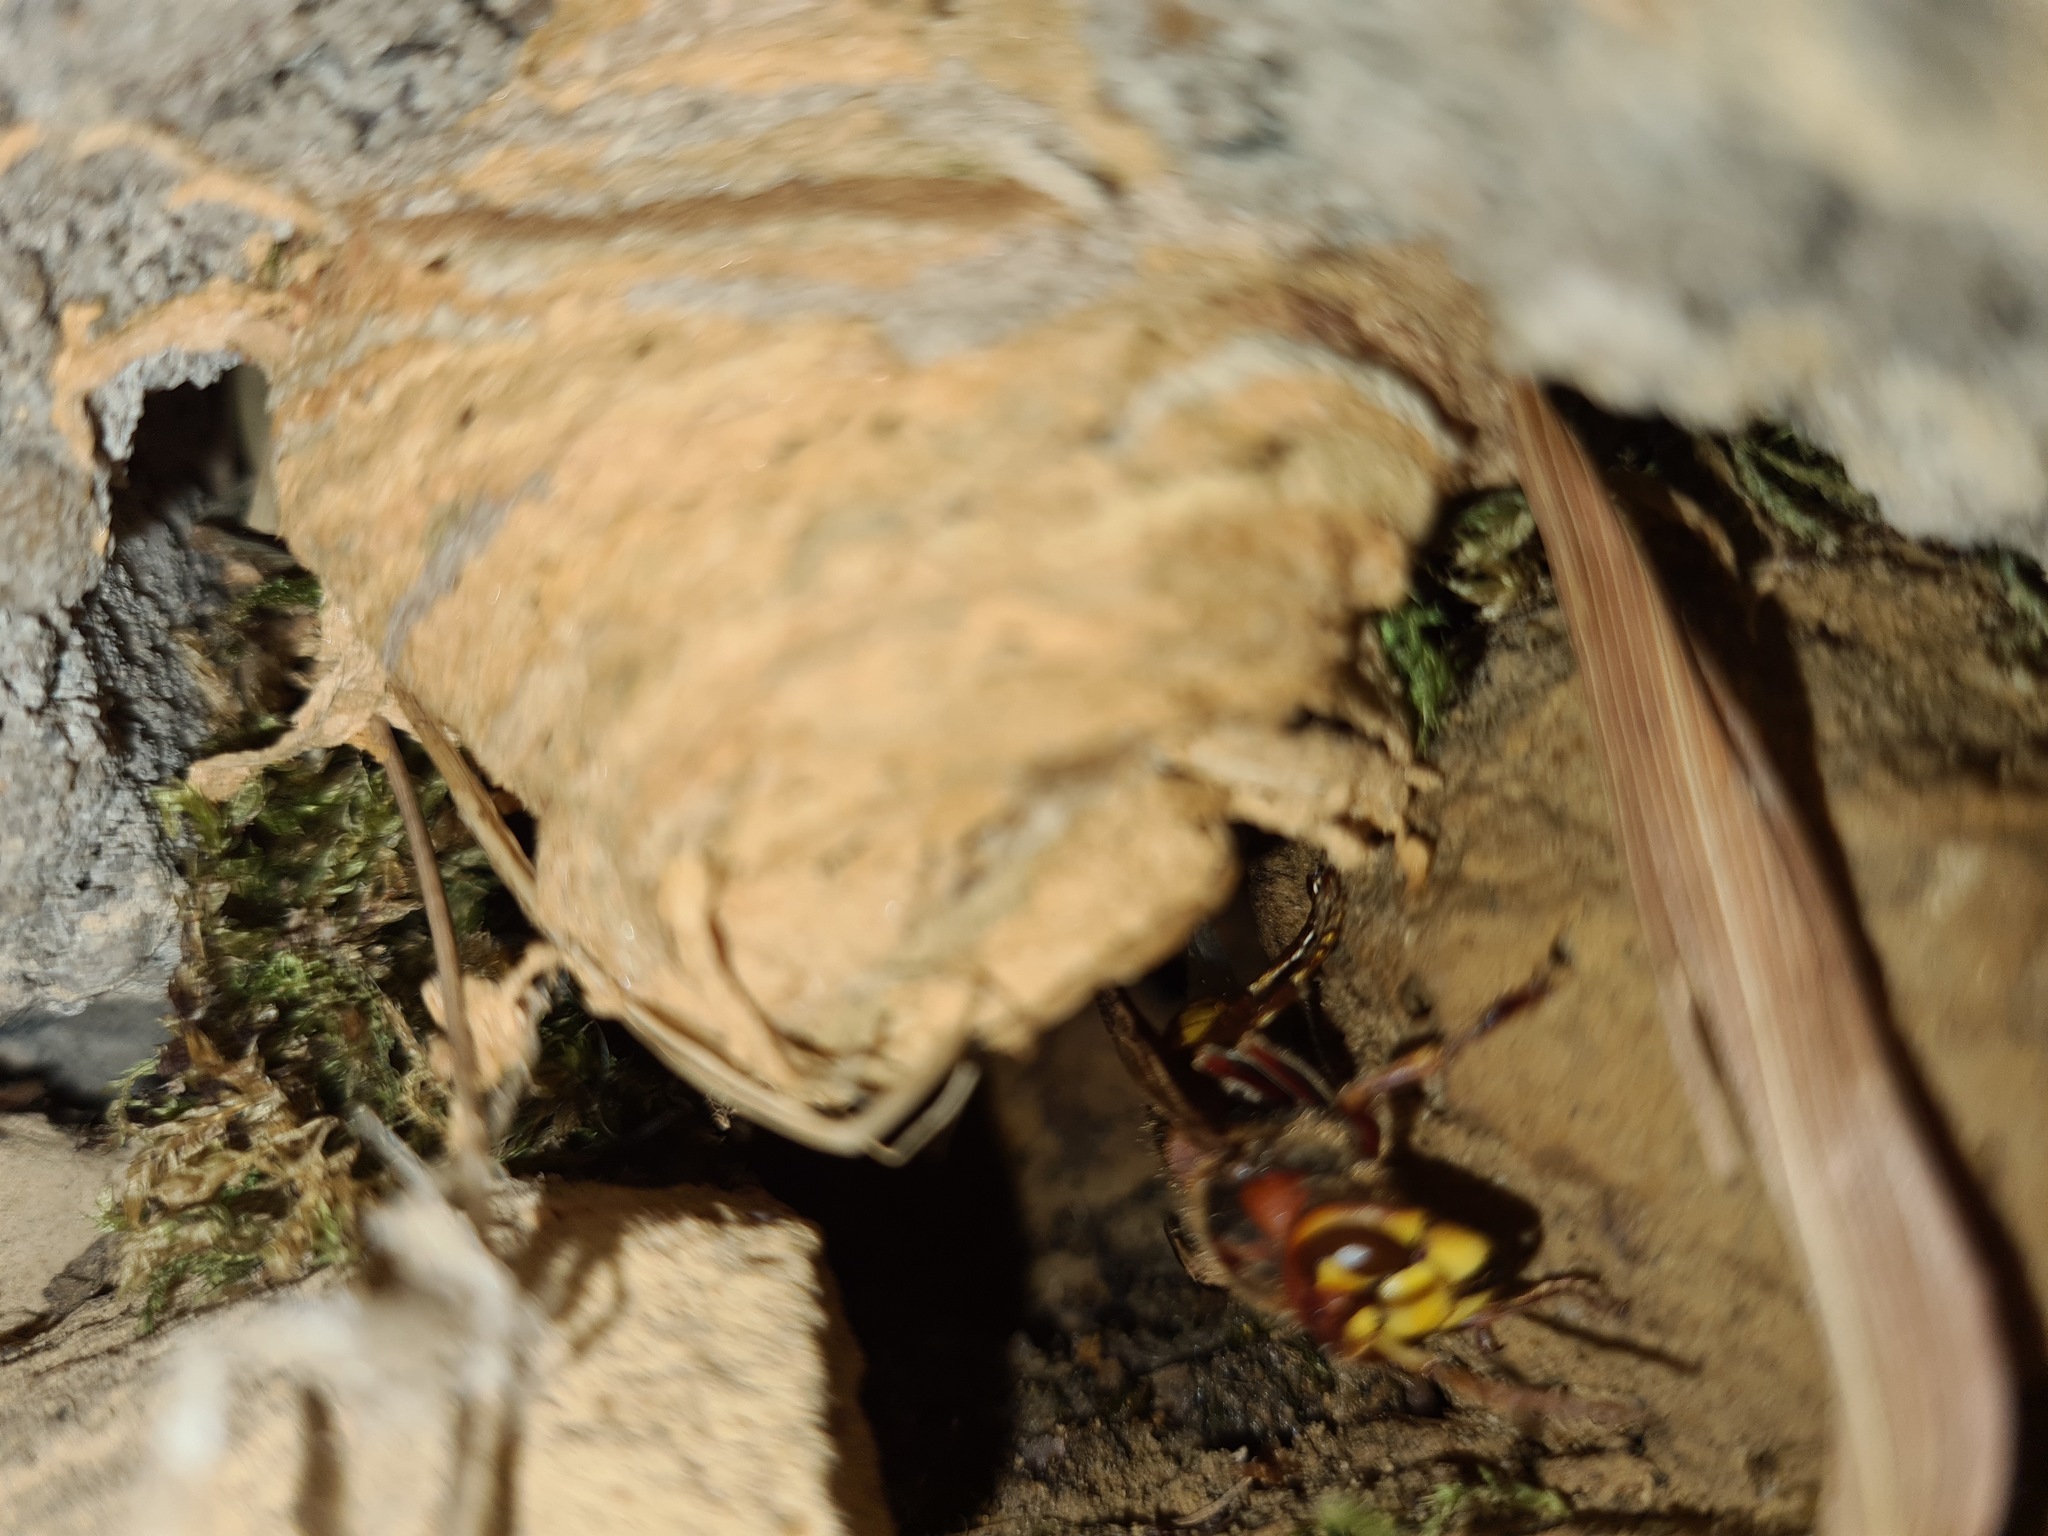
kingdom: Animalia
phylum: Arthropoda
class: Insecta
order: Hymenoptera
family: Vespidae
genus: Vespa
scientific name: Vespa crabro
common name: Hornet
